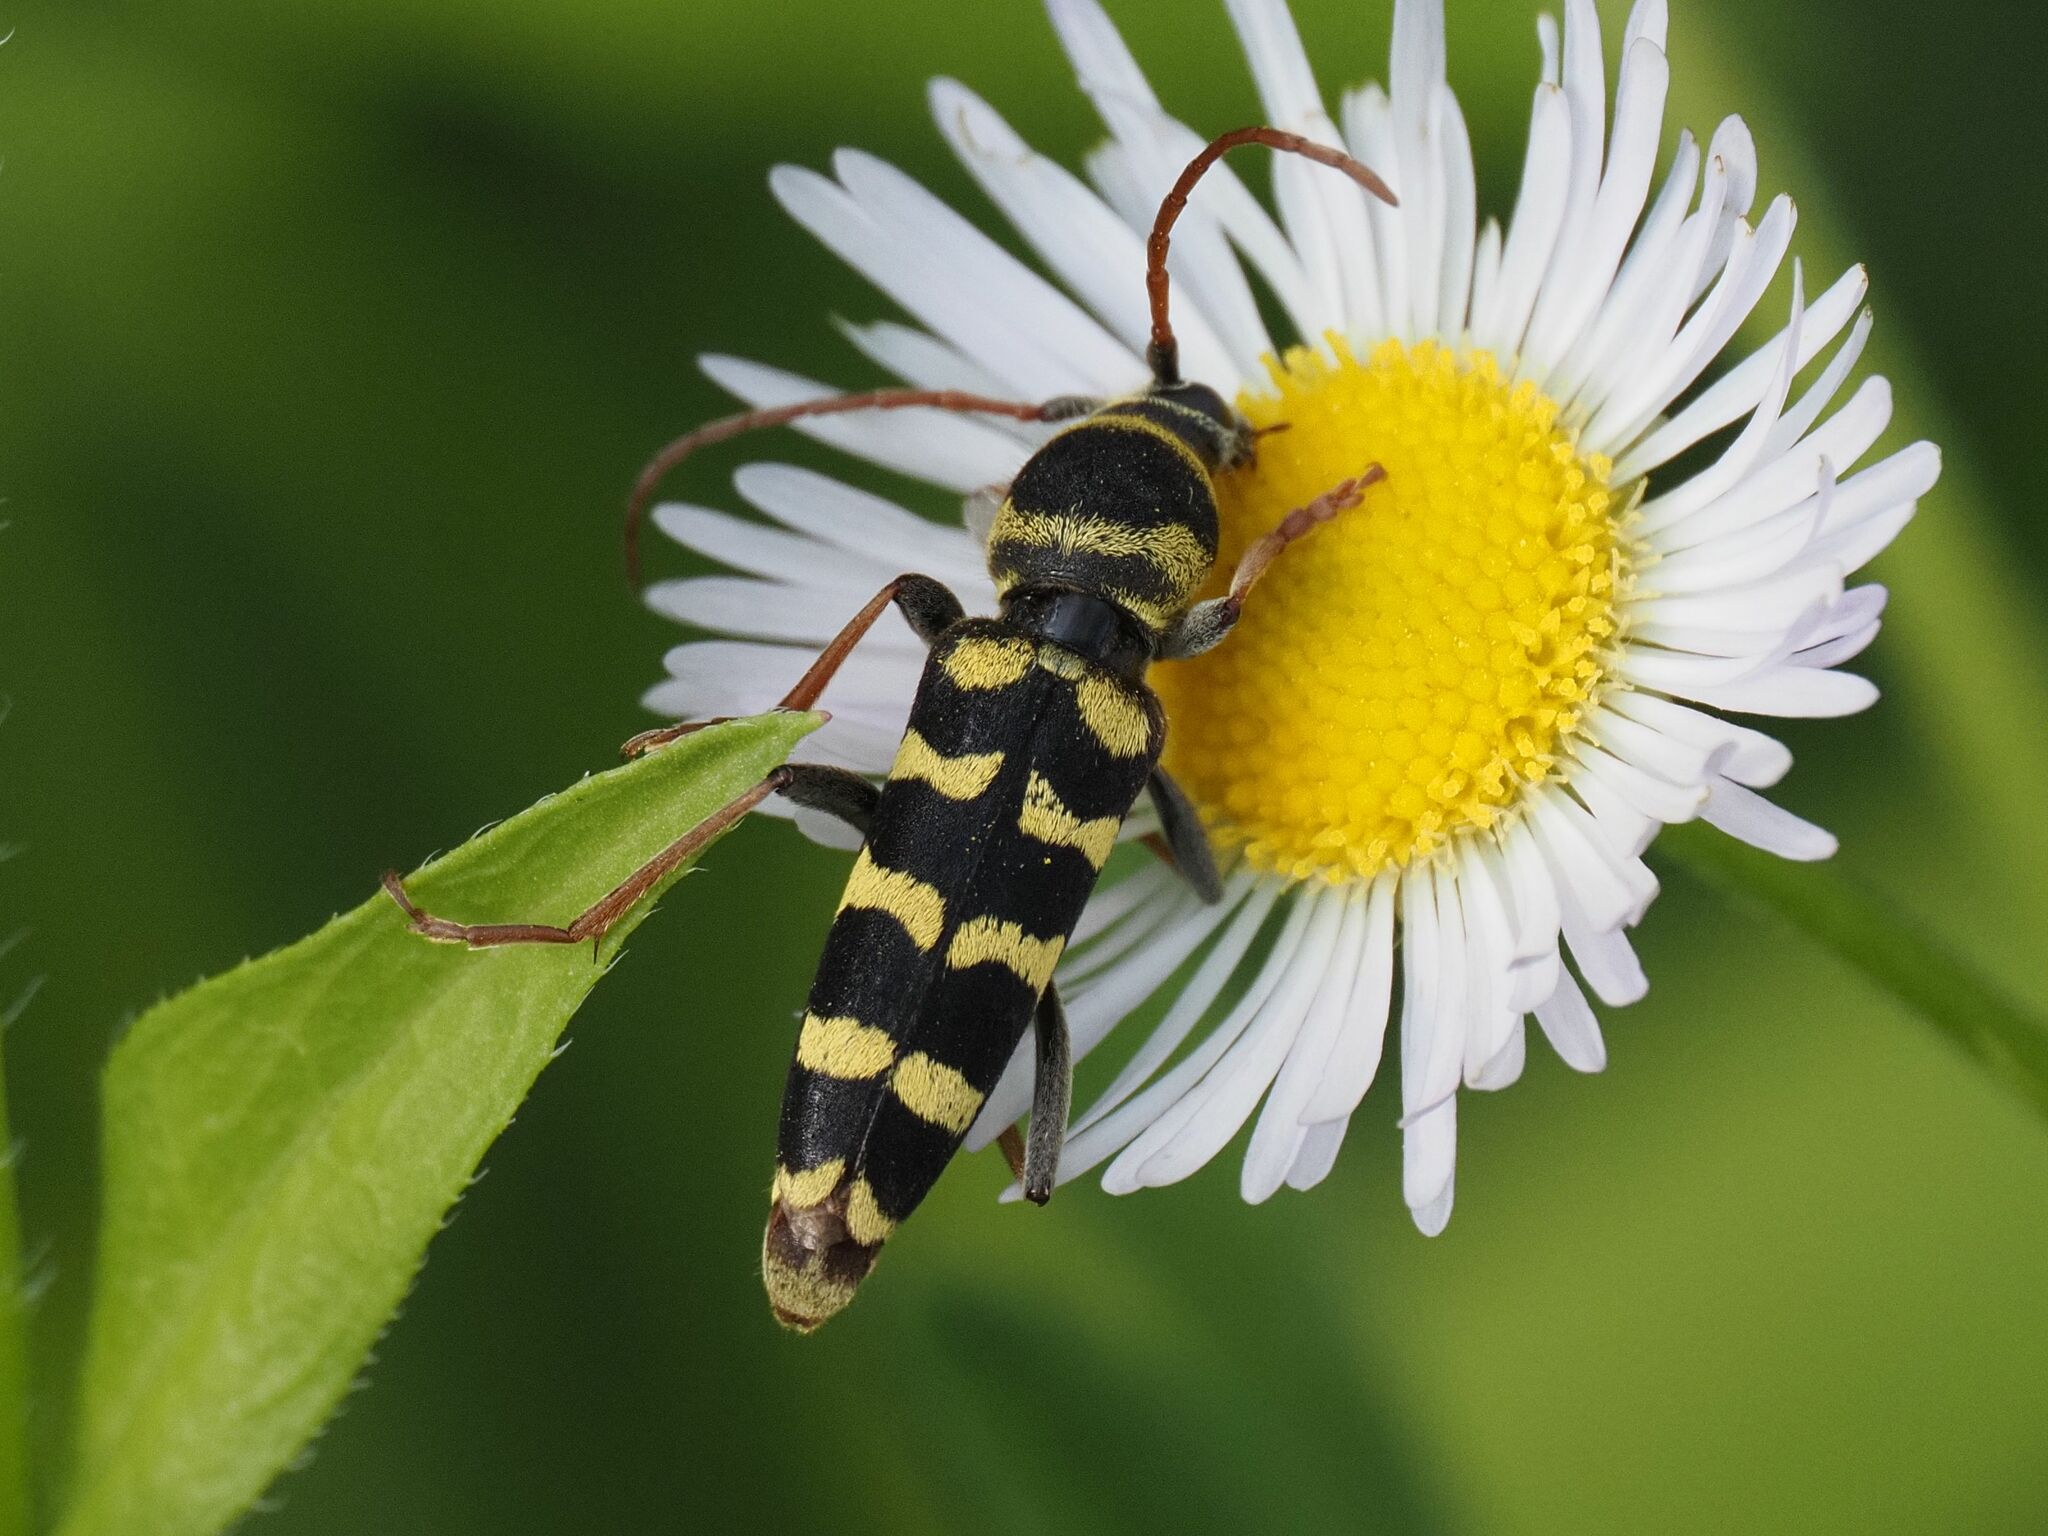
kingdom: Animalia
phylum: Arthropoda
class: Insecta
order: Coleoptera
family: Cerambycidae
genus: Plagionotus
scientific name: Plagionotus floralis
